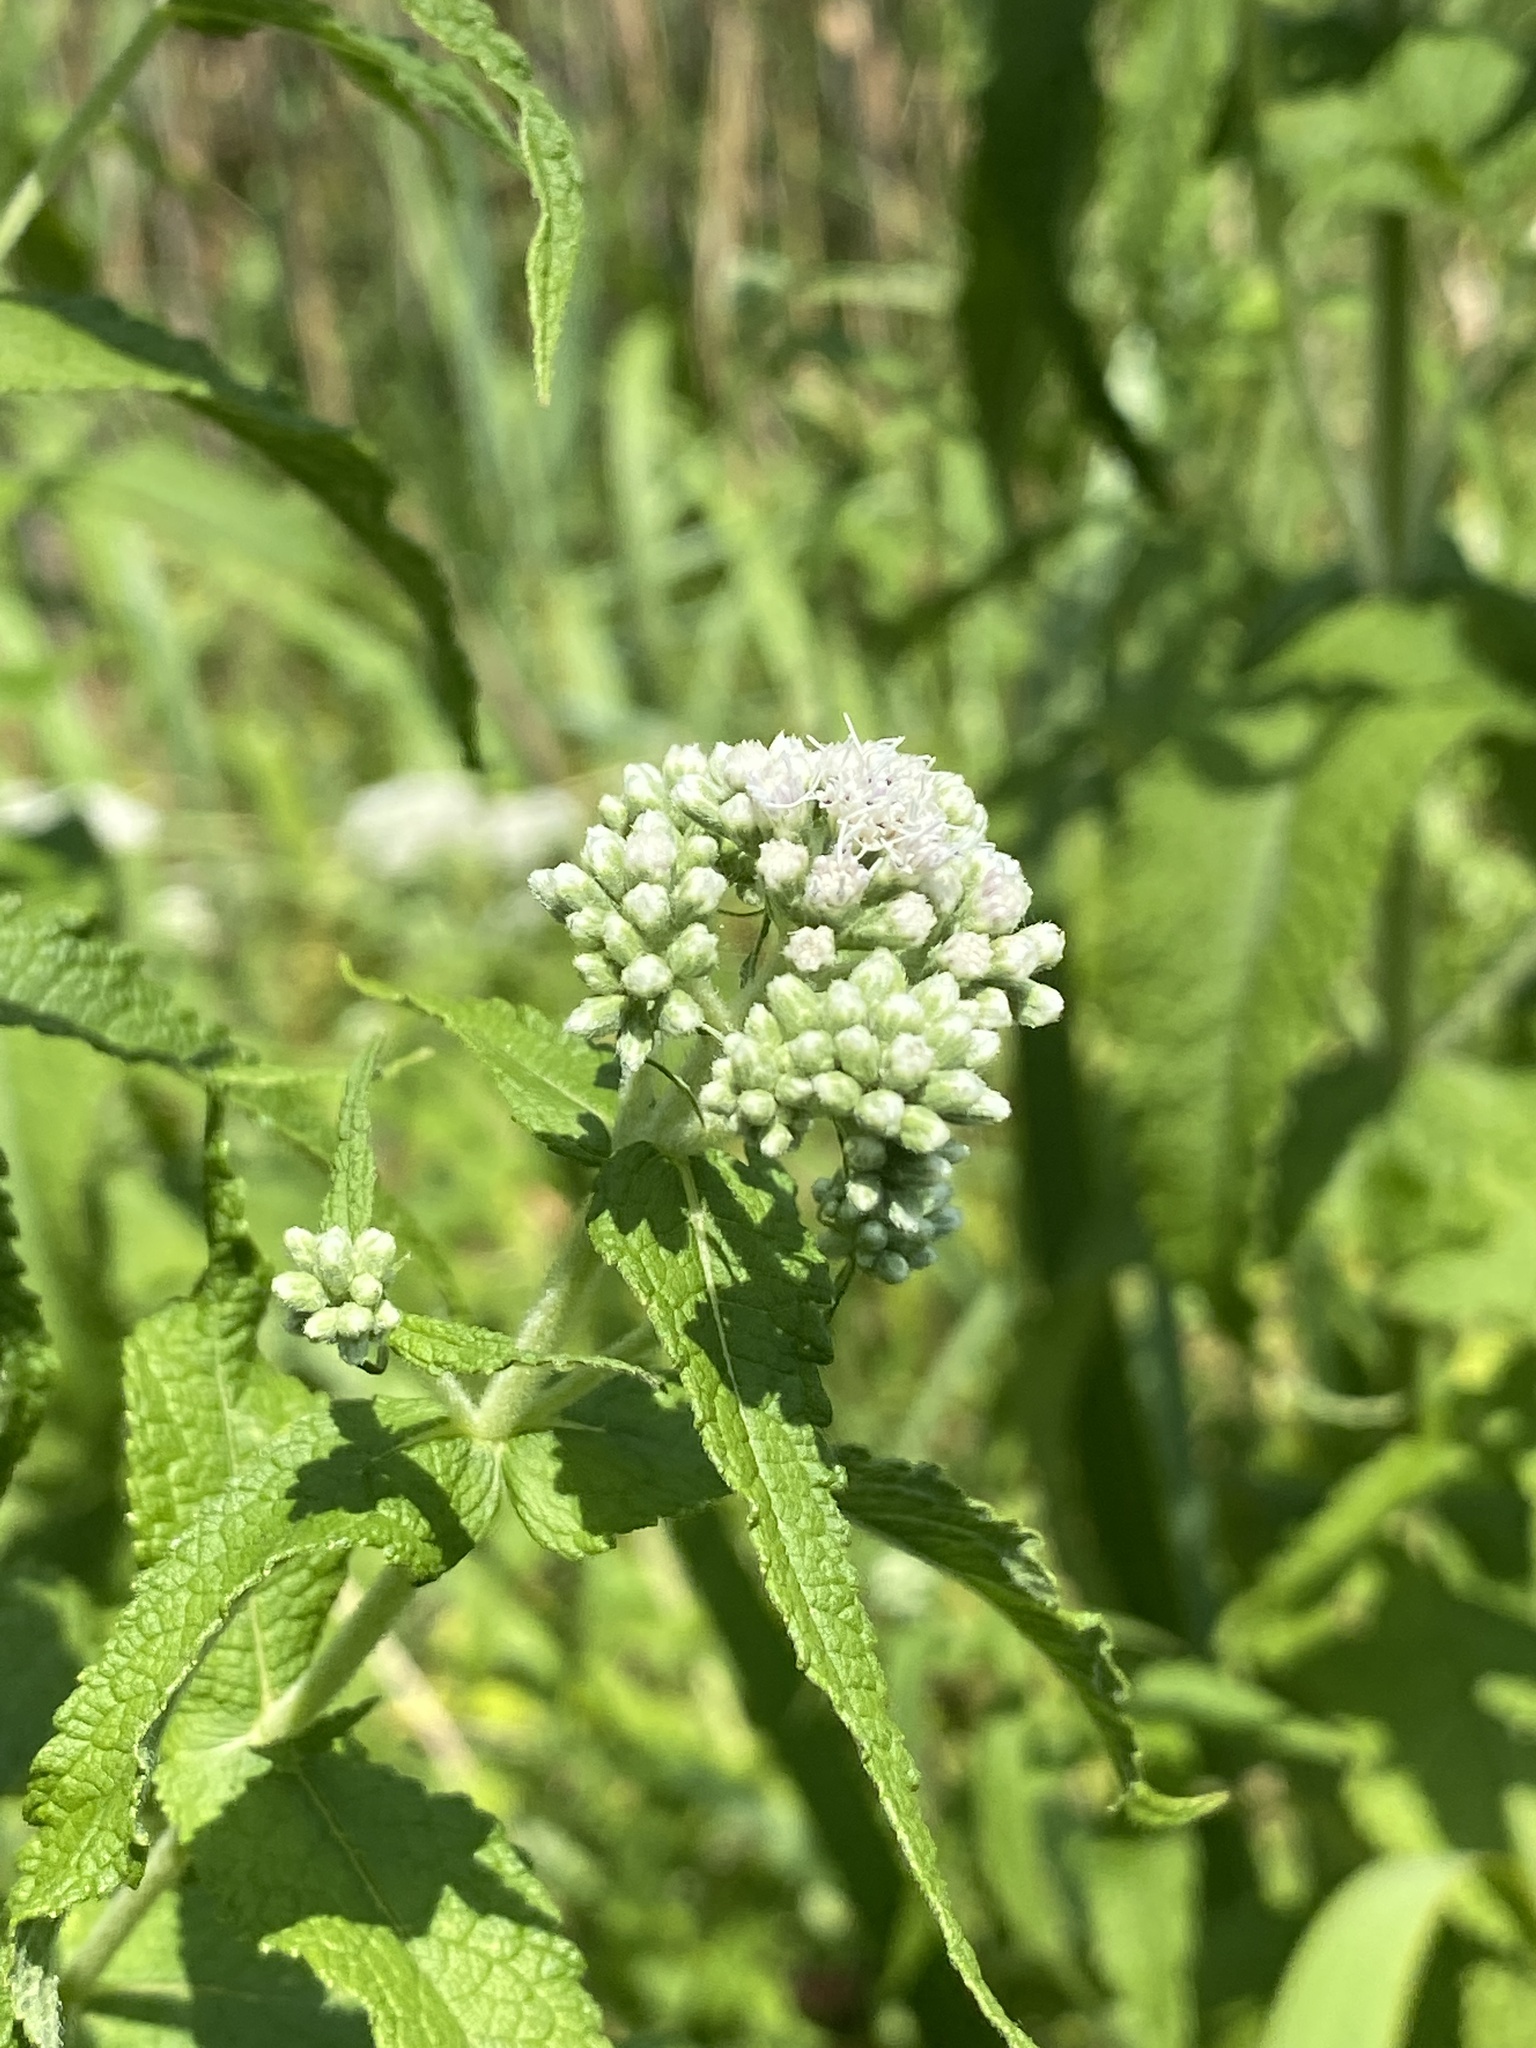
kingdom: Plantae
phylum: Tracheophyta
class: Magnoliopsida
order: Asterales
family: Asteraceae
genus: Eupatorium
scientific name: Eupatorium perfoliatum
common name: Boneset
